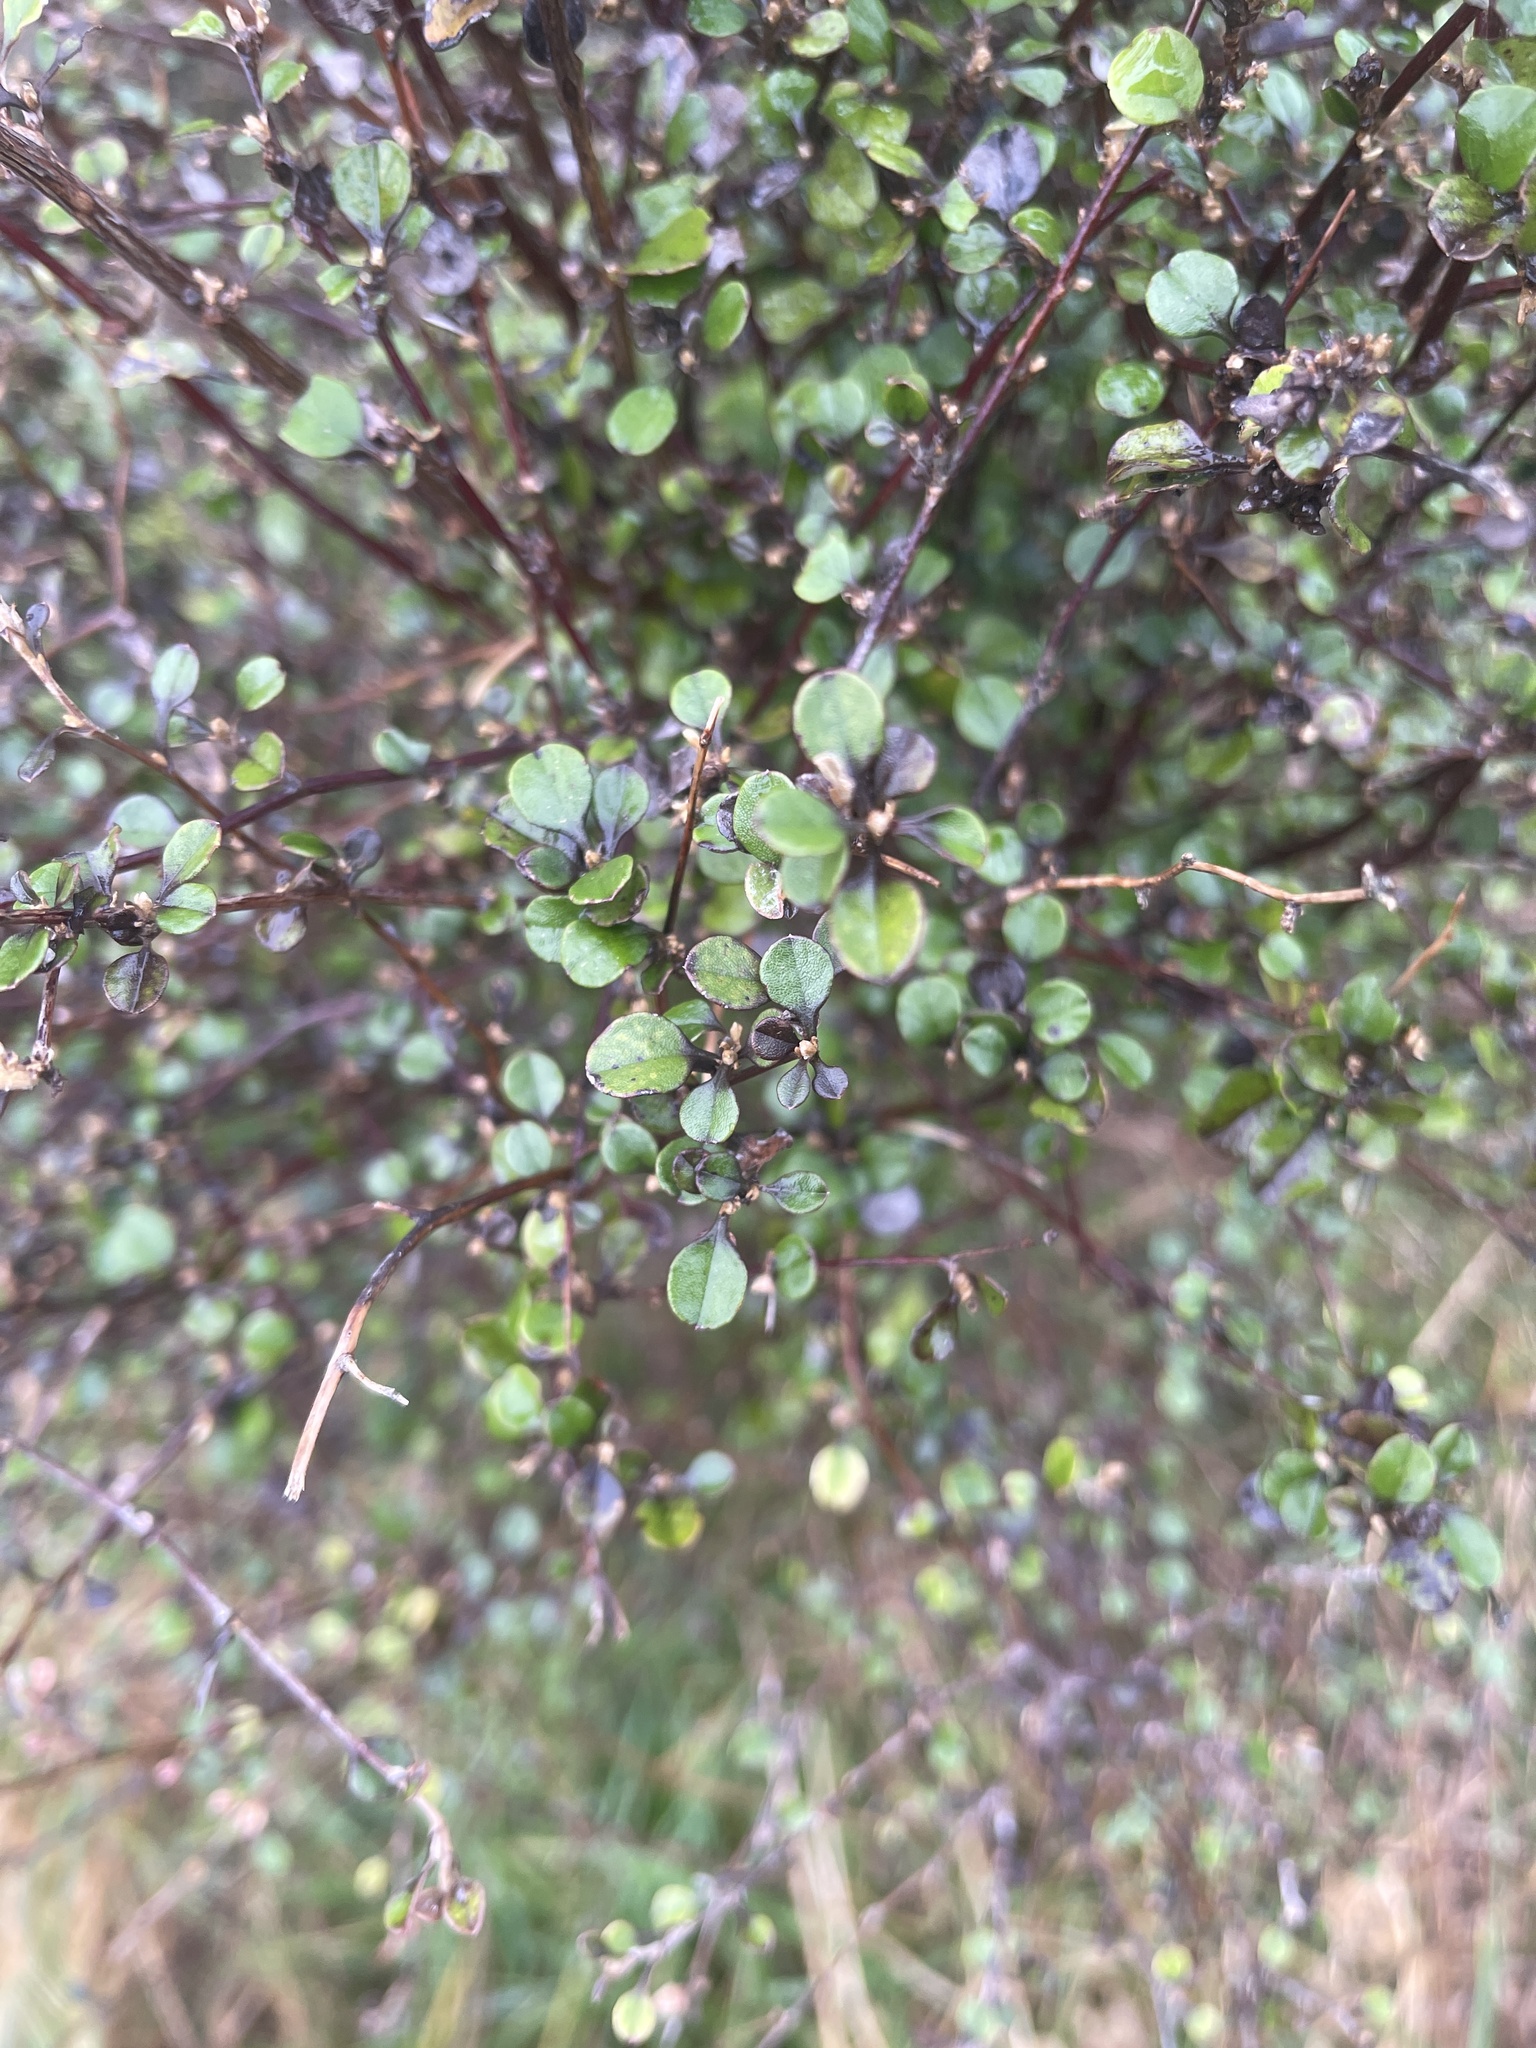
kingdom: Plantae
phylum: Tracheophyta
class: Magnoliopsida
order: Asterales
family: Argophyllaceae
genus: Corokia
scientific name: Corokia cotoneaster
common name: Wire nettingbush
